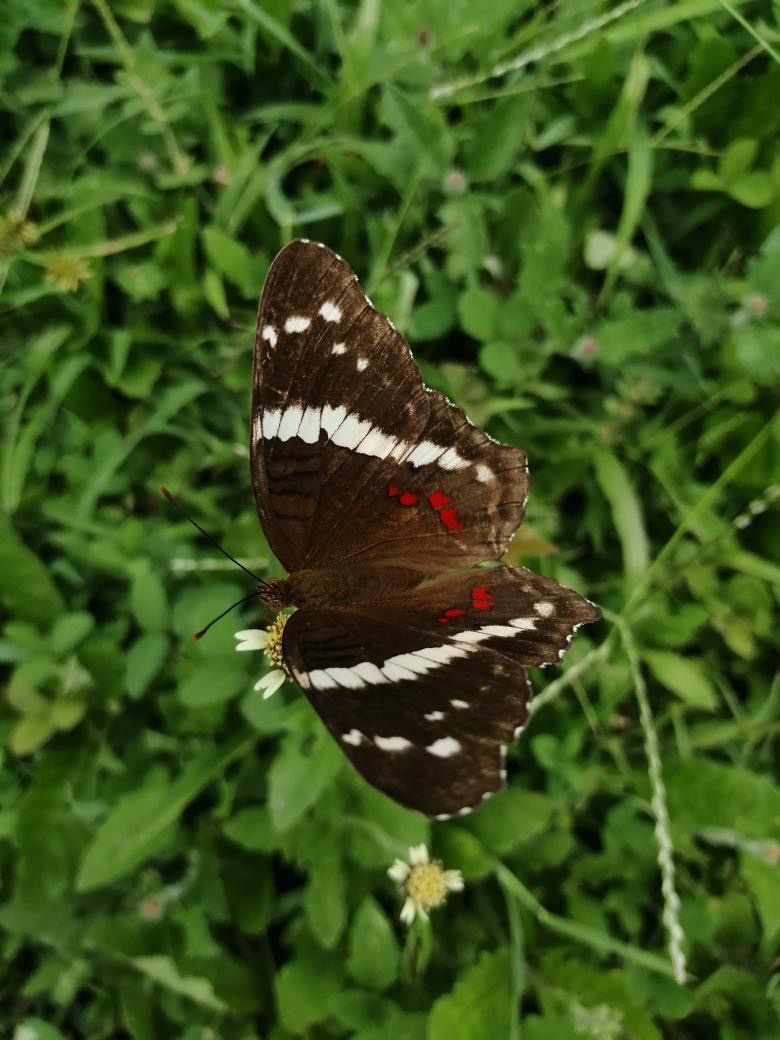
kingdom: Animalia
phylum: Arthropoda
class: Insecta
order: Lepidoptera
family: Nymphalidae
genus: Anartia
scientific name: Anartia fatima
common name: Banded peacock
